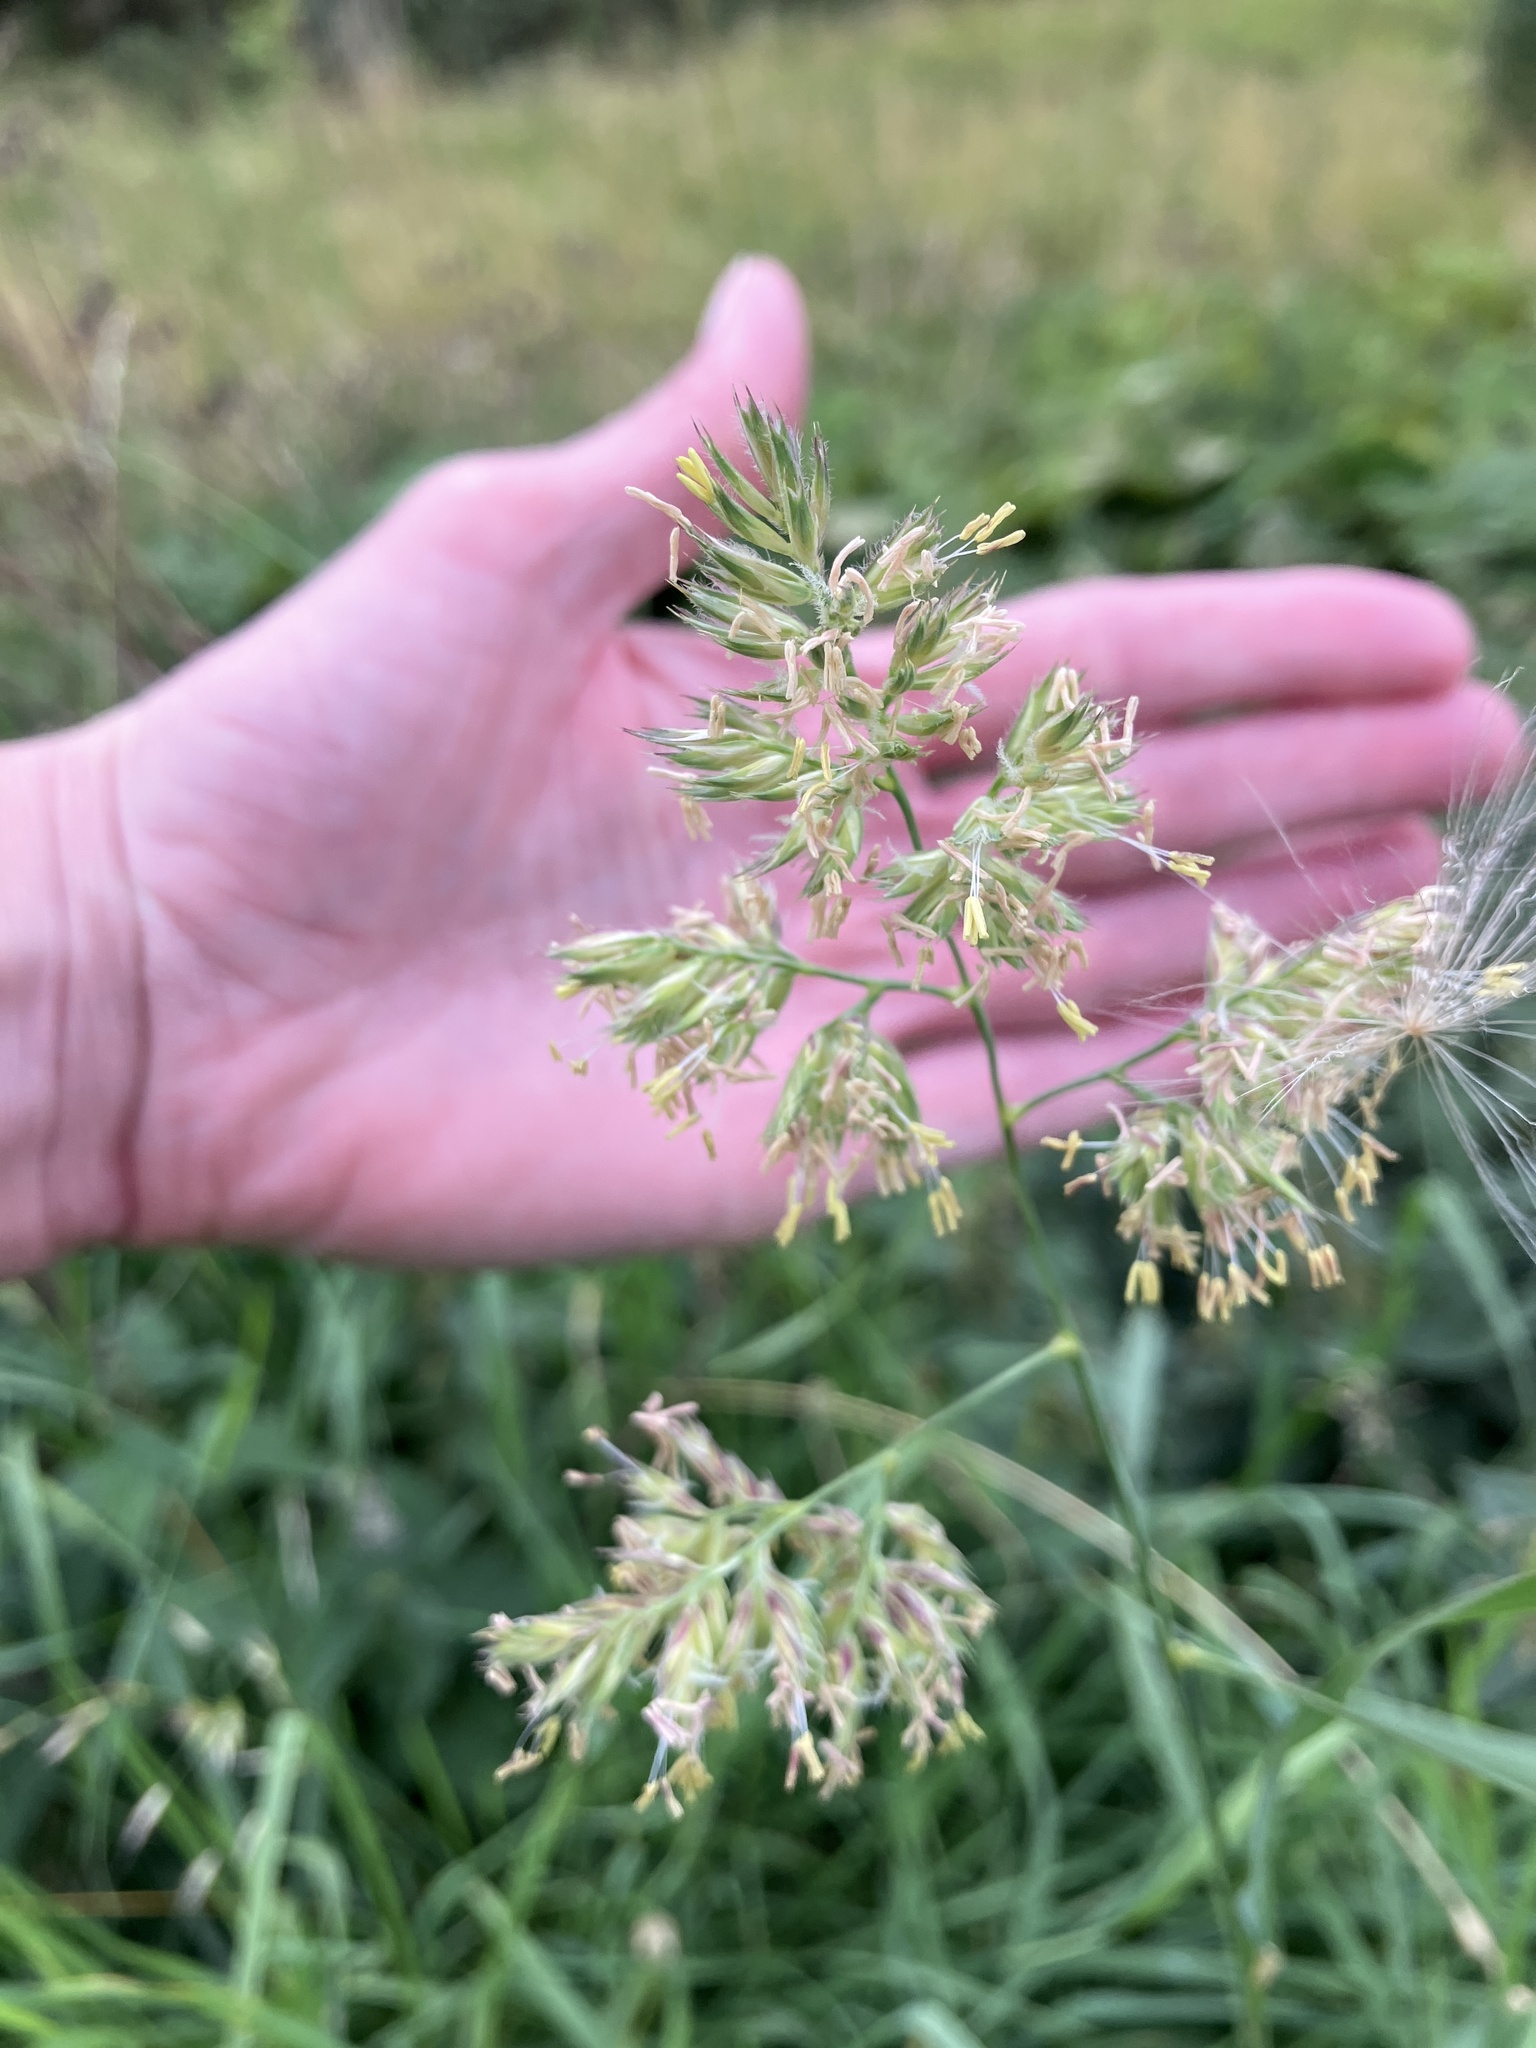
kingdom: Plantae
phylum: Tracheophyta
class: Liliopsida
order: Poales
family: Poaceae
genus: Dactylis
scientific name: Dactylis glomerata
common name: Orchardgrass
